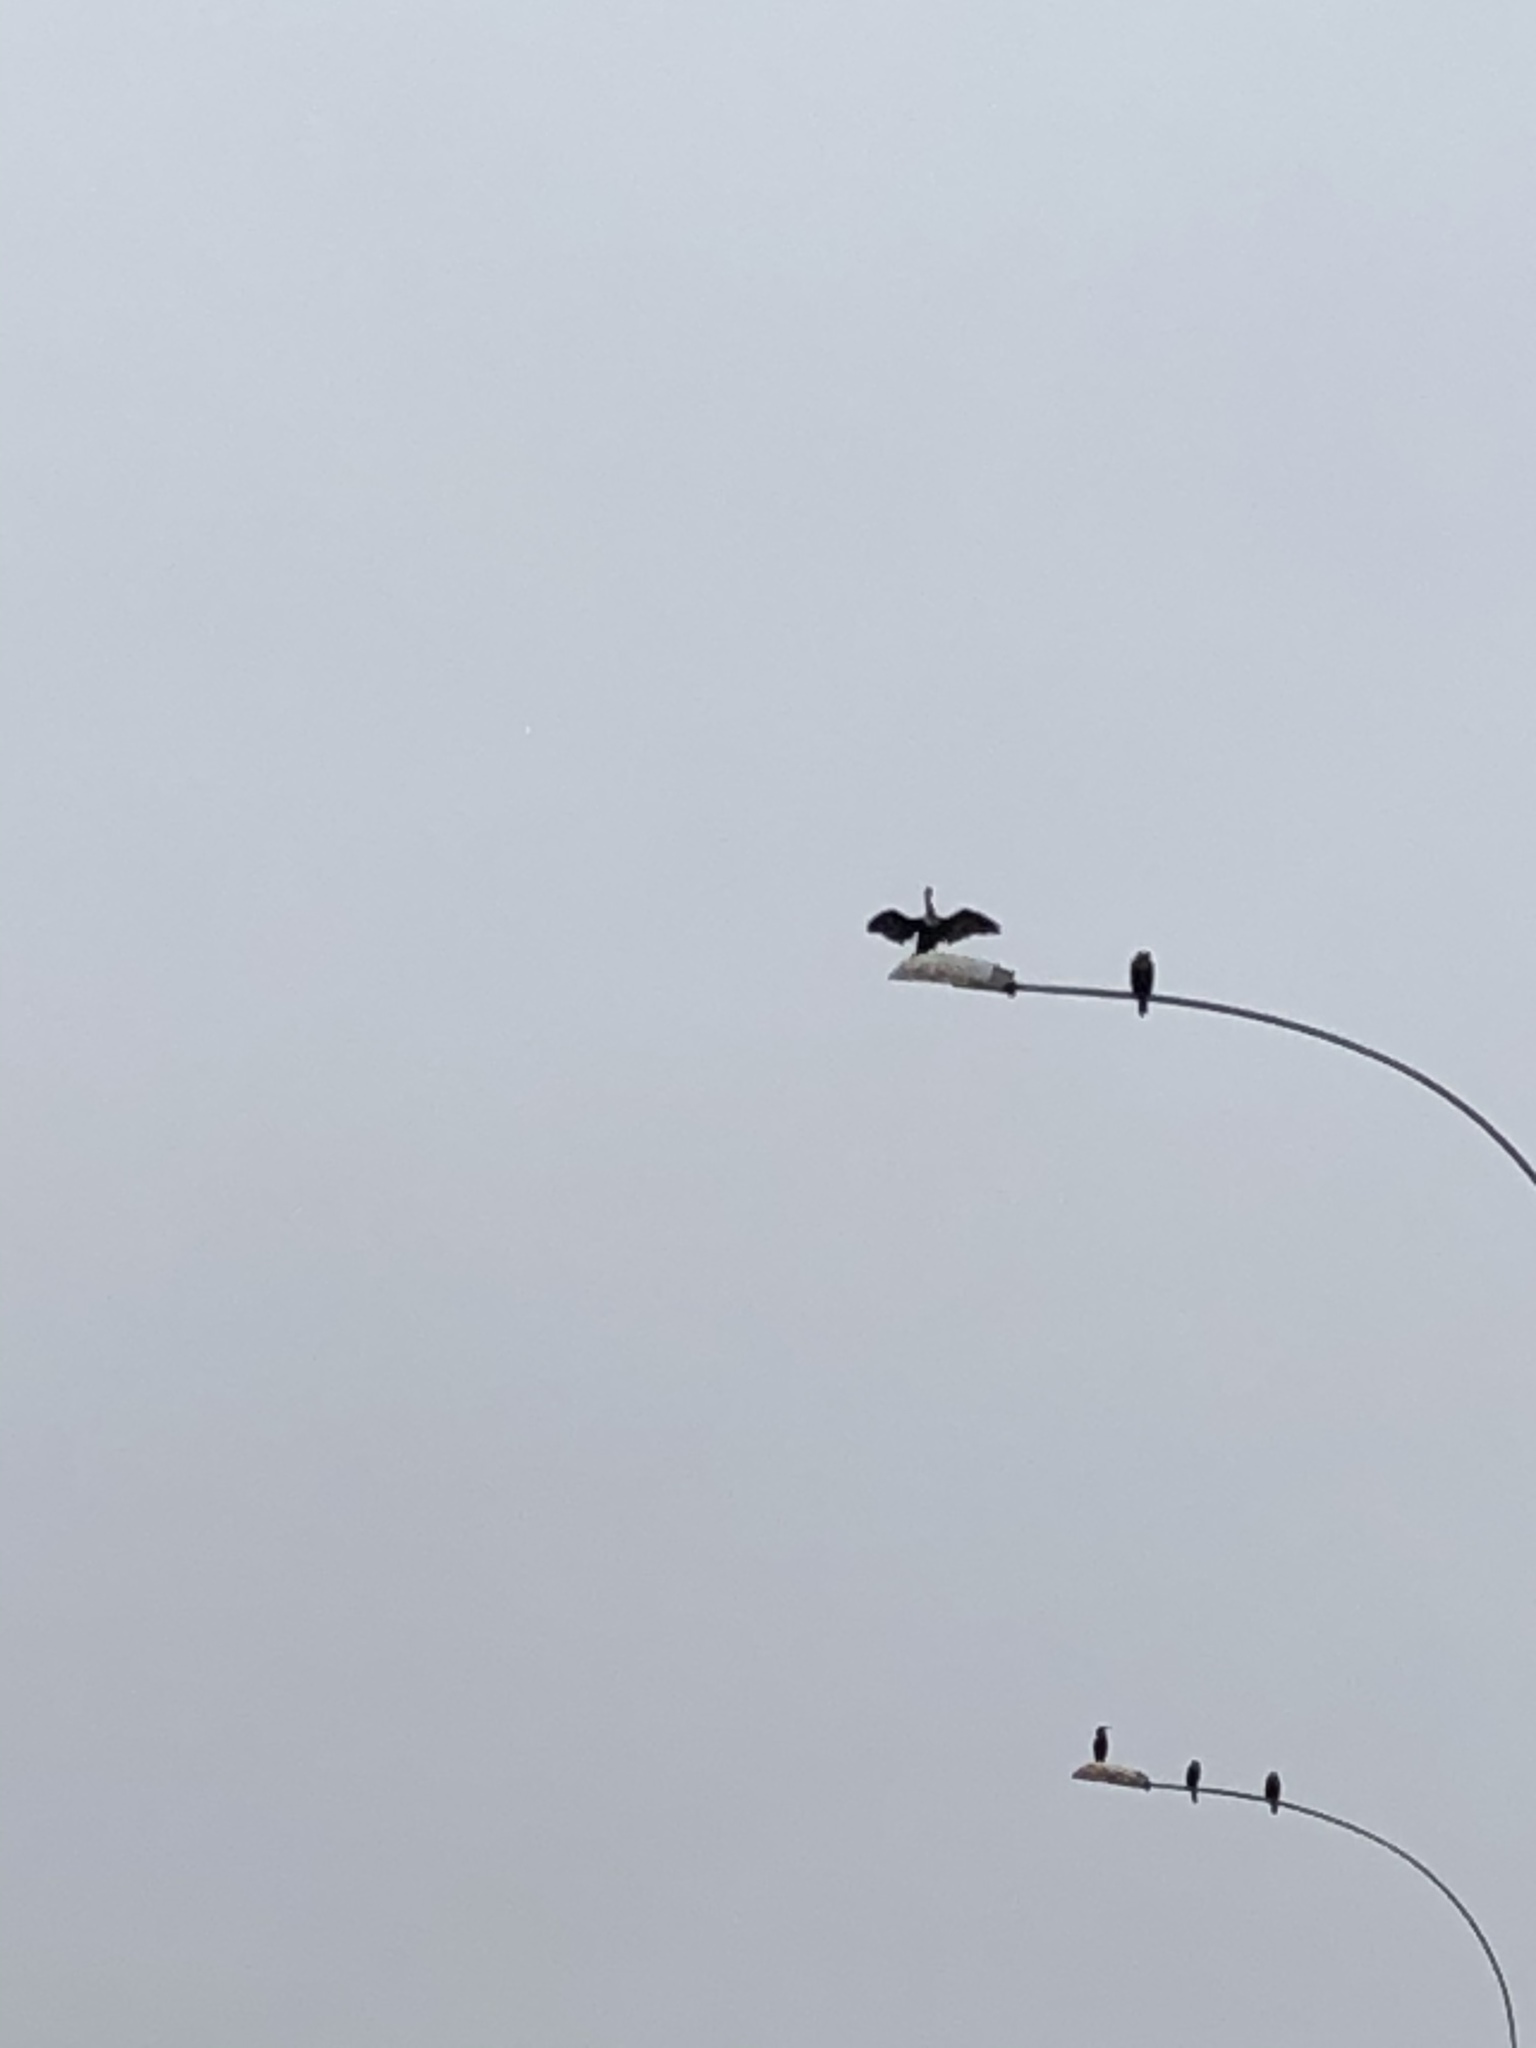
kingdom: Animalia
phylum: Chordata
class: Aves
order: Suliformes
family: Phalacrocoracidae
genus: Phalacrocorax
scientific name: Phalacrocorax brasilianus
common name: Neotropic cormorant
